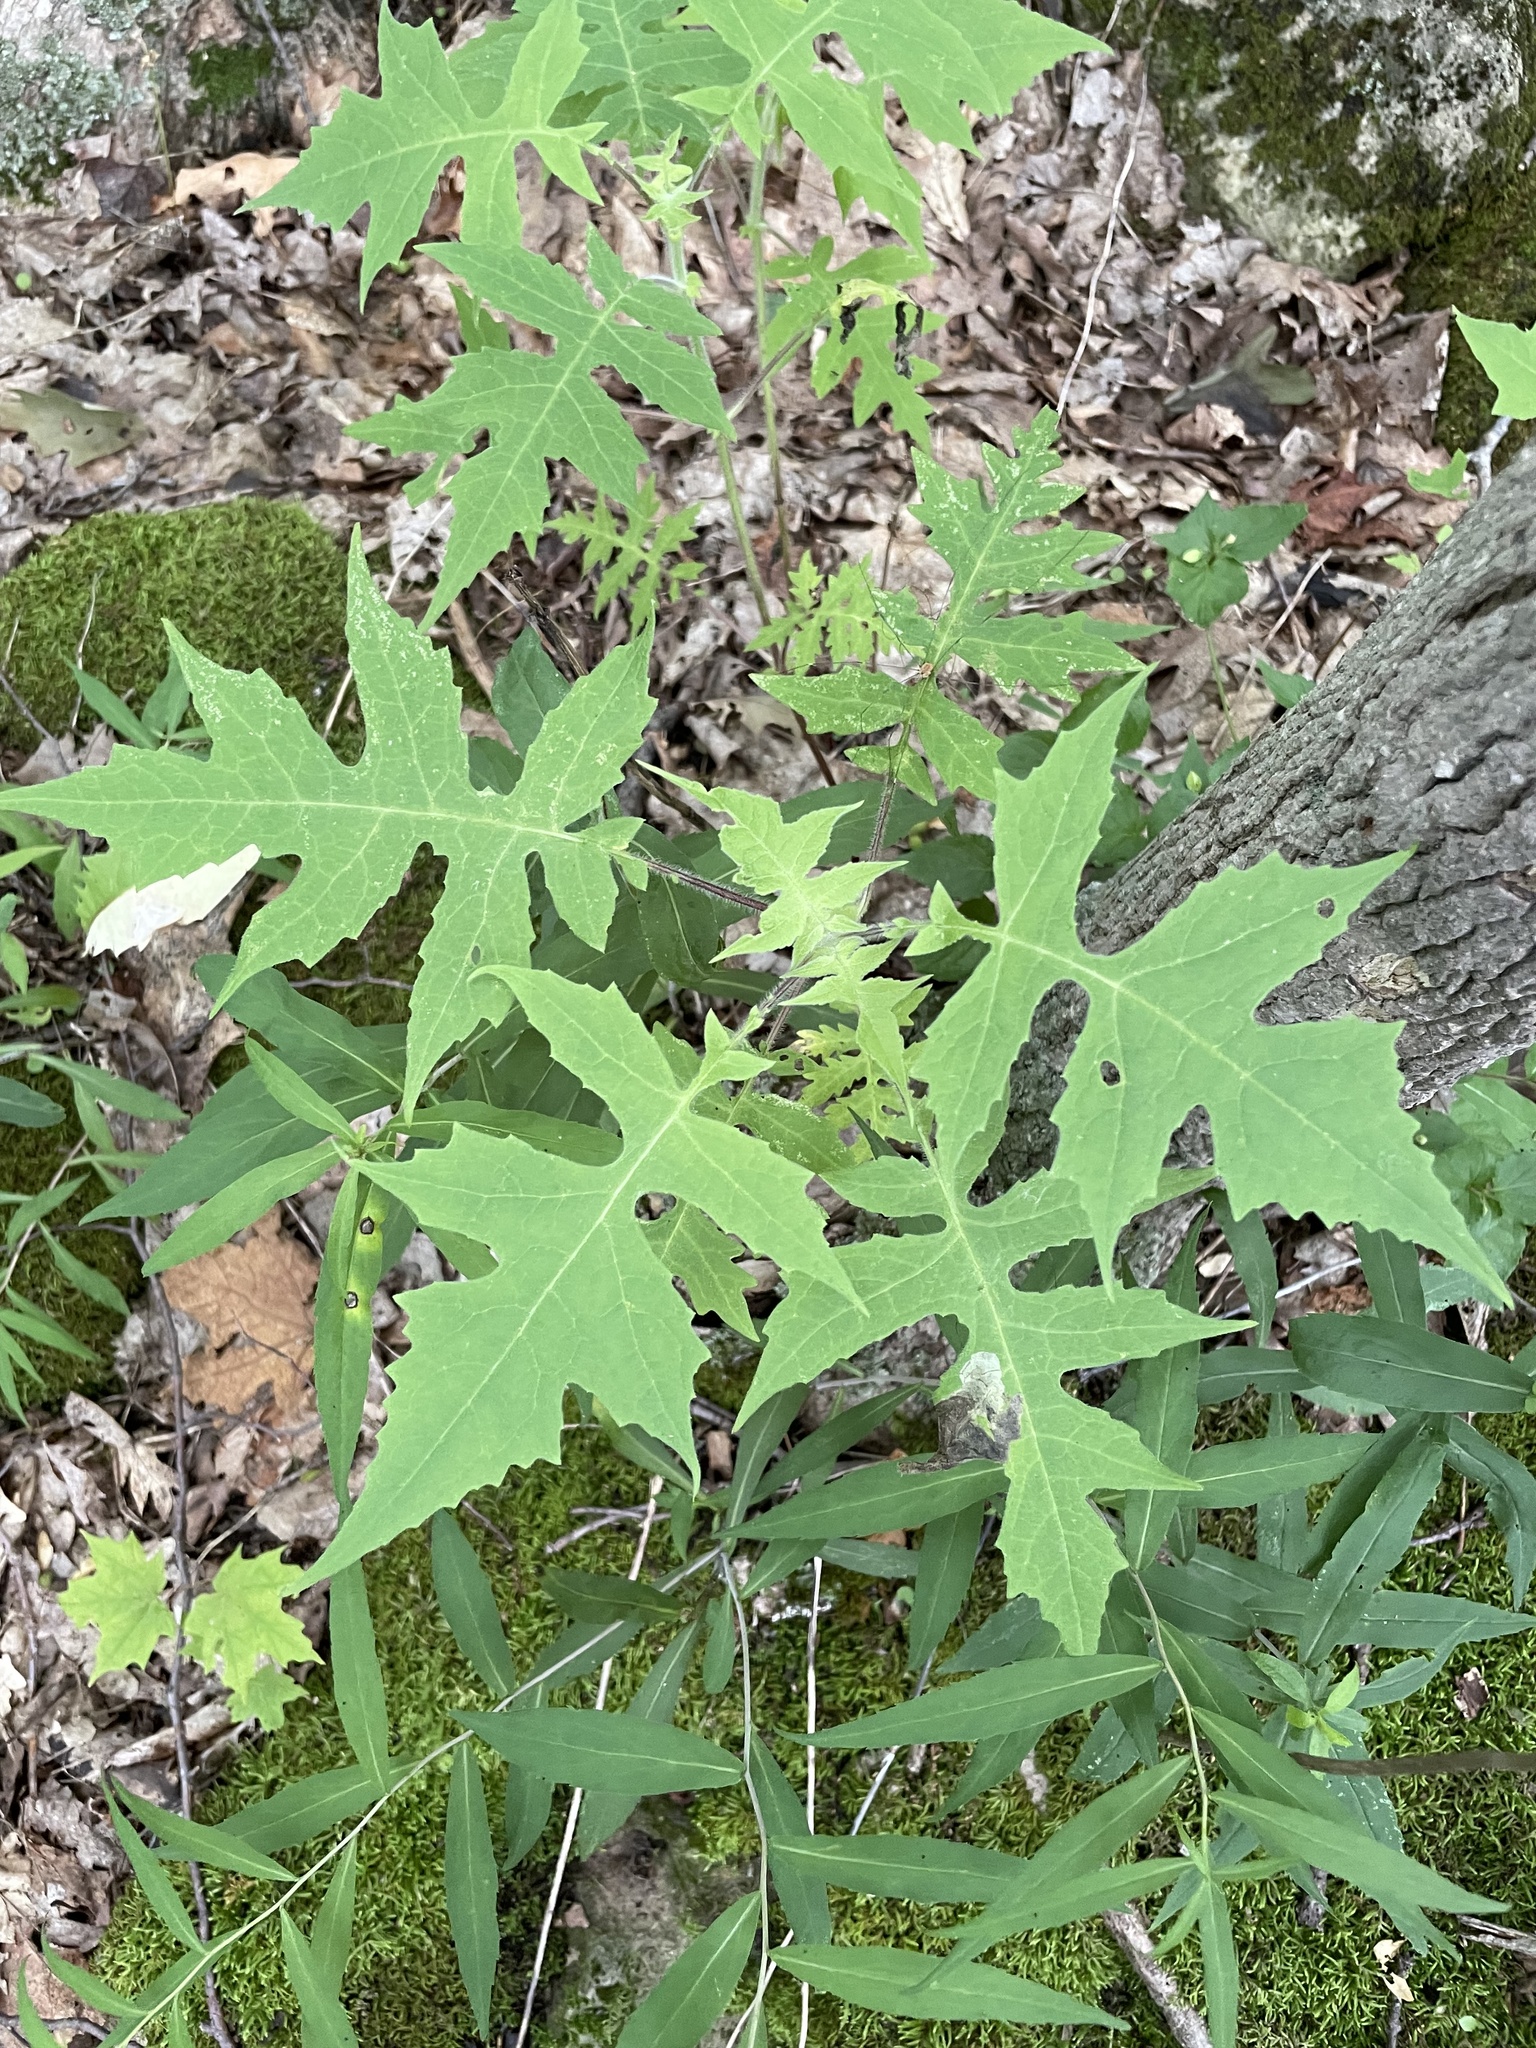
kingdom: Plantae
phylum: Tracheophyta
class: Magnoliopsida
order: Asterales
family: Asteraceae
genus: Polymnia
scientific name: Polymnia canadensis
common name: Pale-flowered leafcup
